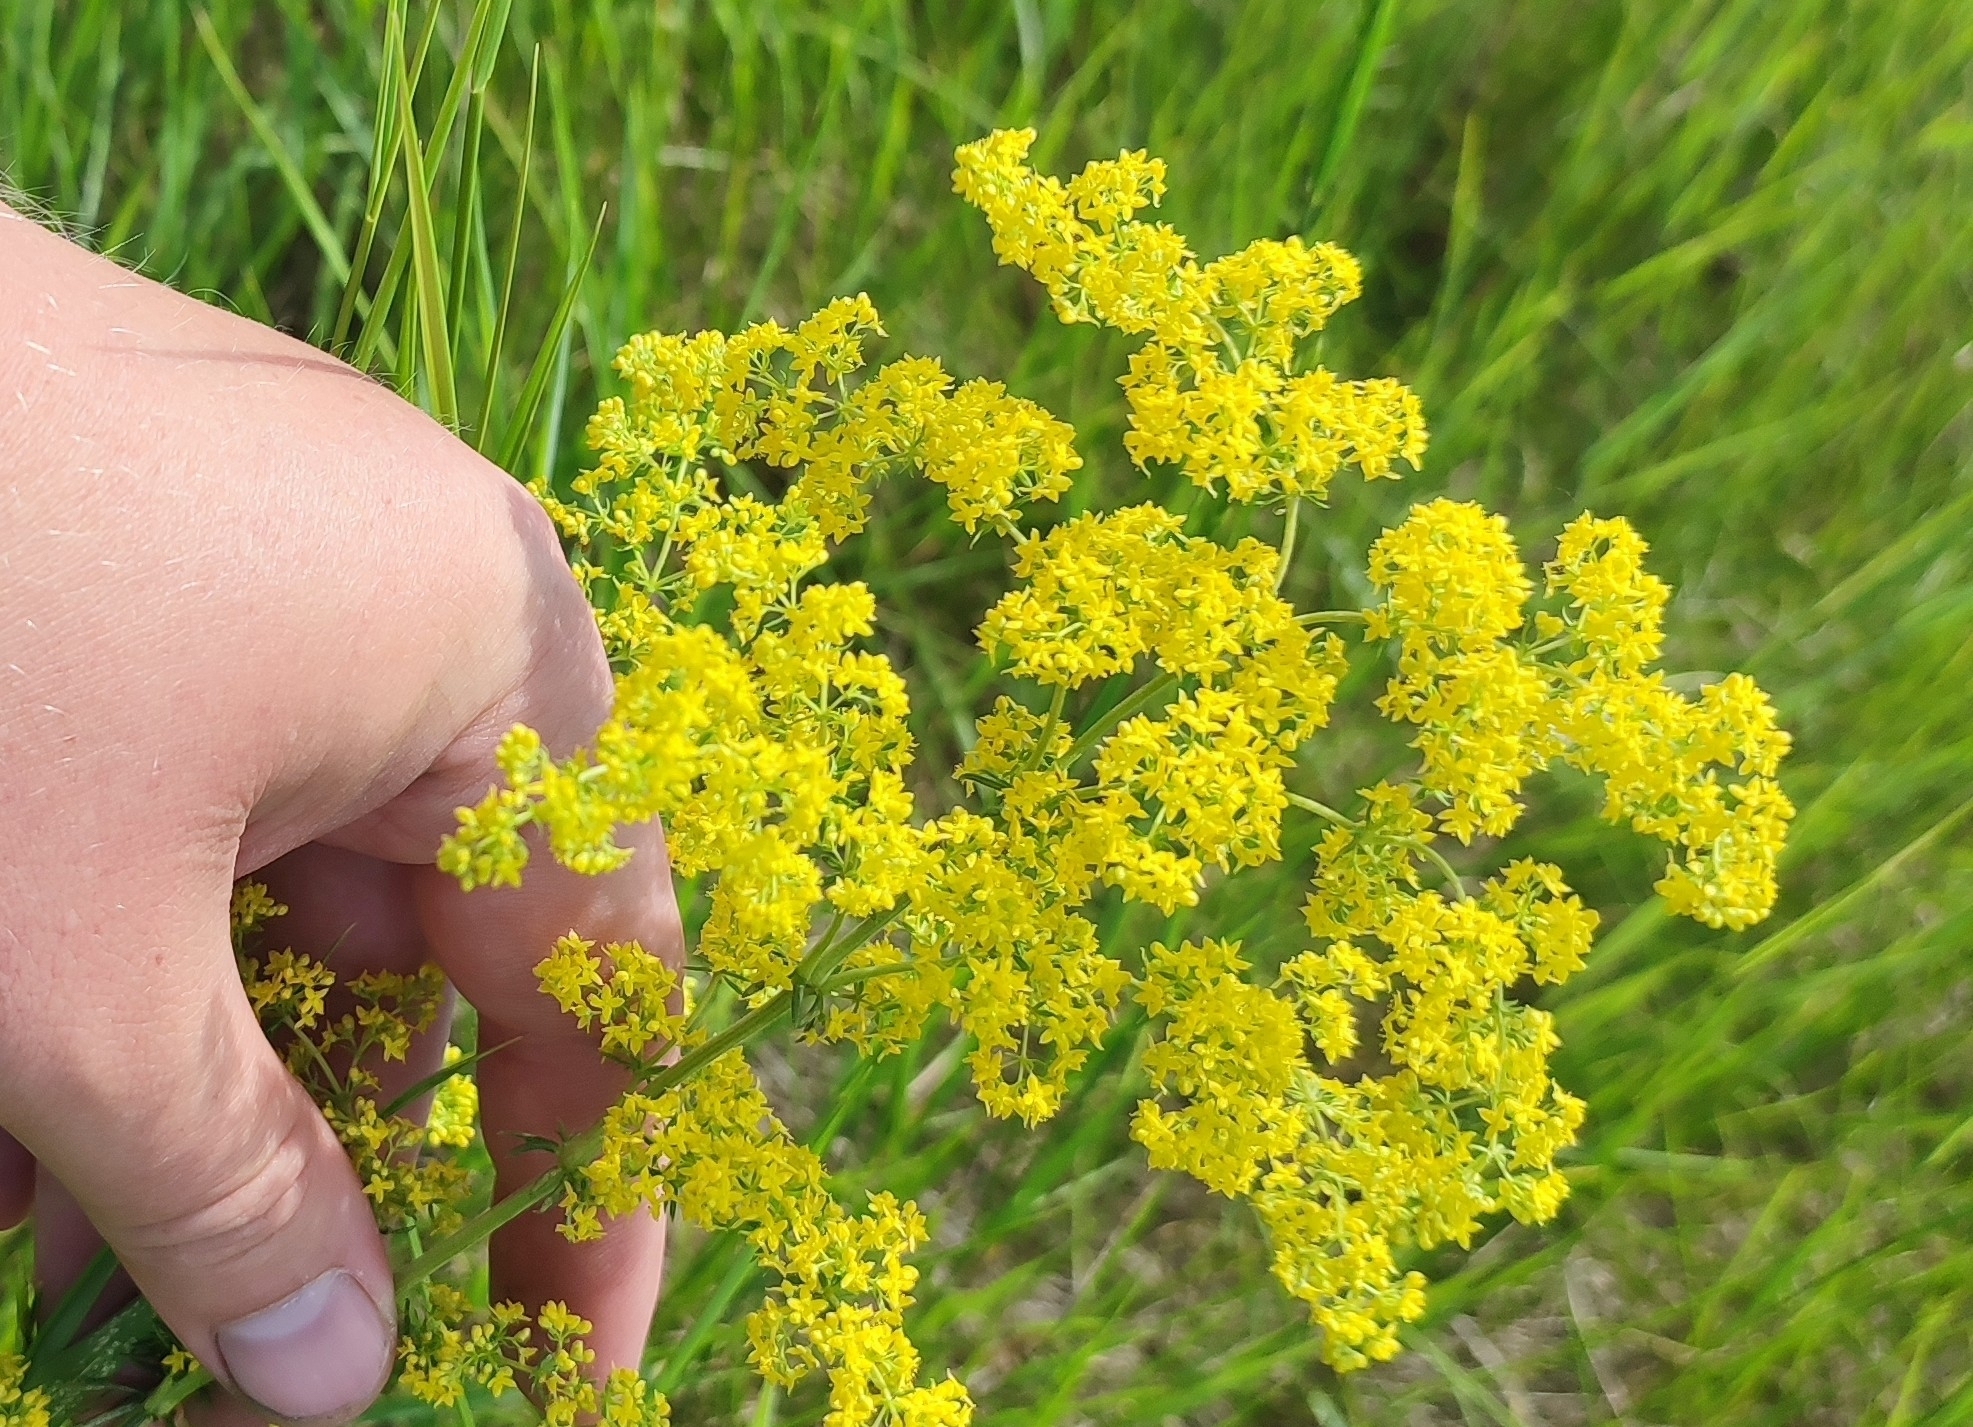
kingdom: Plantae
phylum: Tracheophyta
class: Magnoliopsida
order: Gentianales
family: Rubiaceae
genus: Galium
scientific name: Galium verum
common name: Lady's bedstraw
